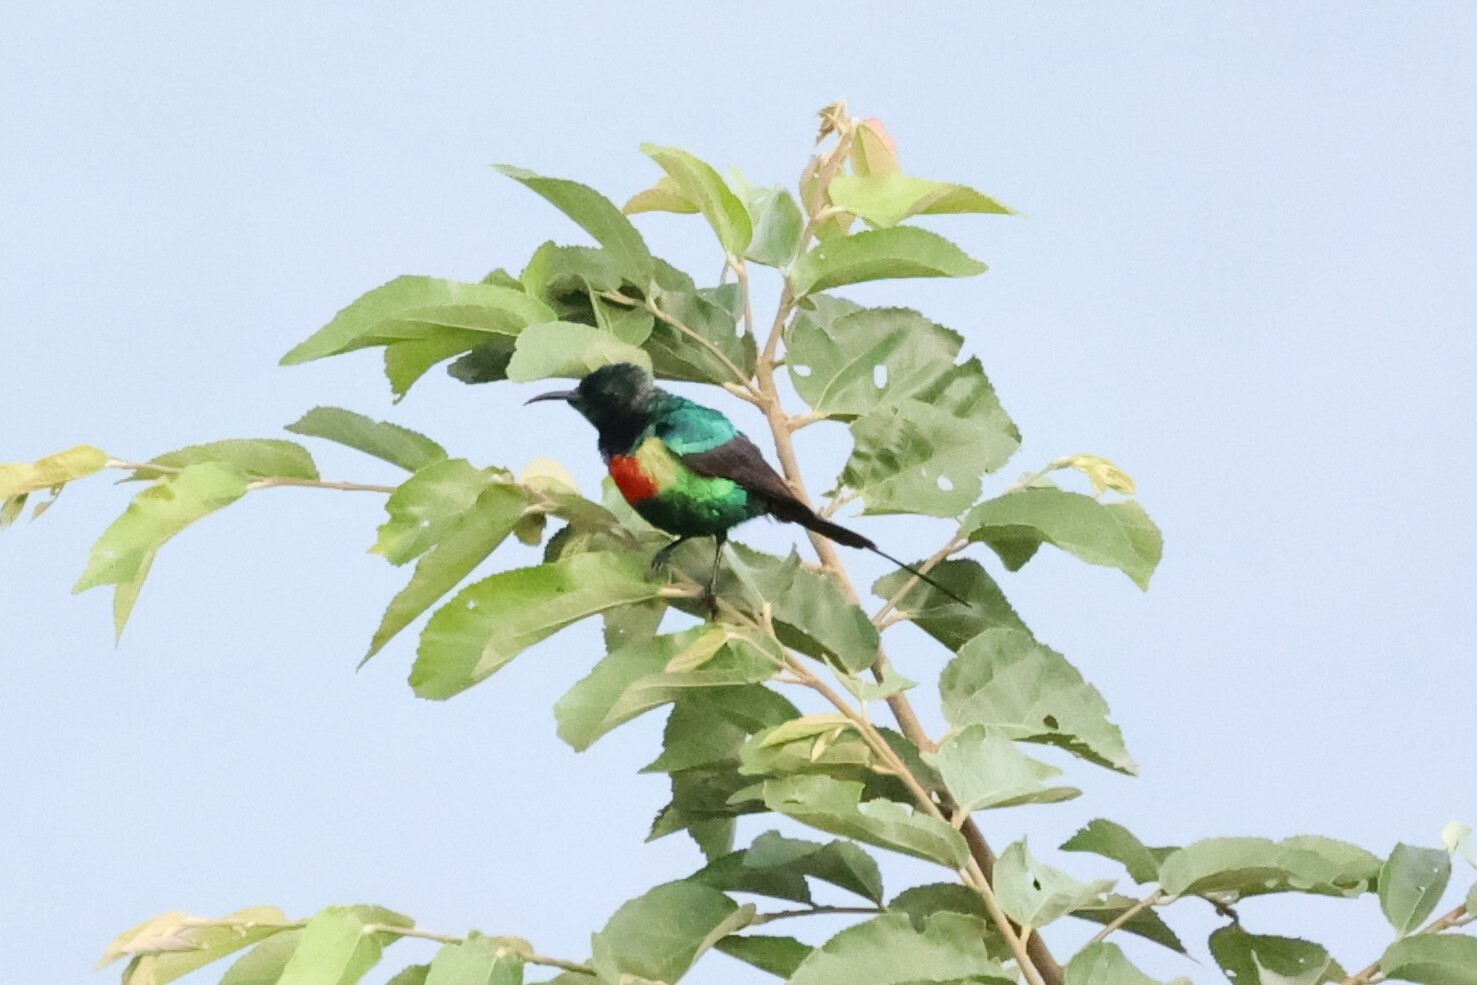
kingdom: Animalia
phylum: Chordata
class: Aves
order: Passeriformes
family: Nectariniidae
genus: Cinnyris
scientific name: Cinnyris pulchellus
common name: Beautiful sunbird
